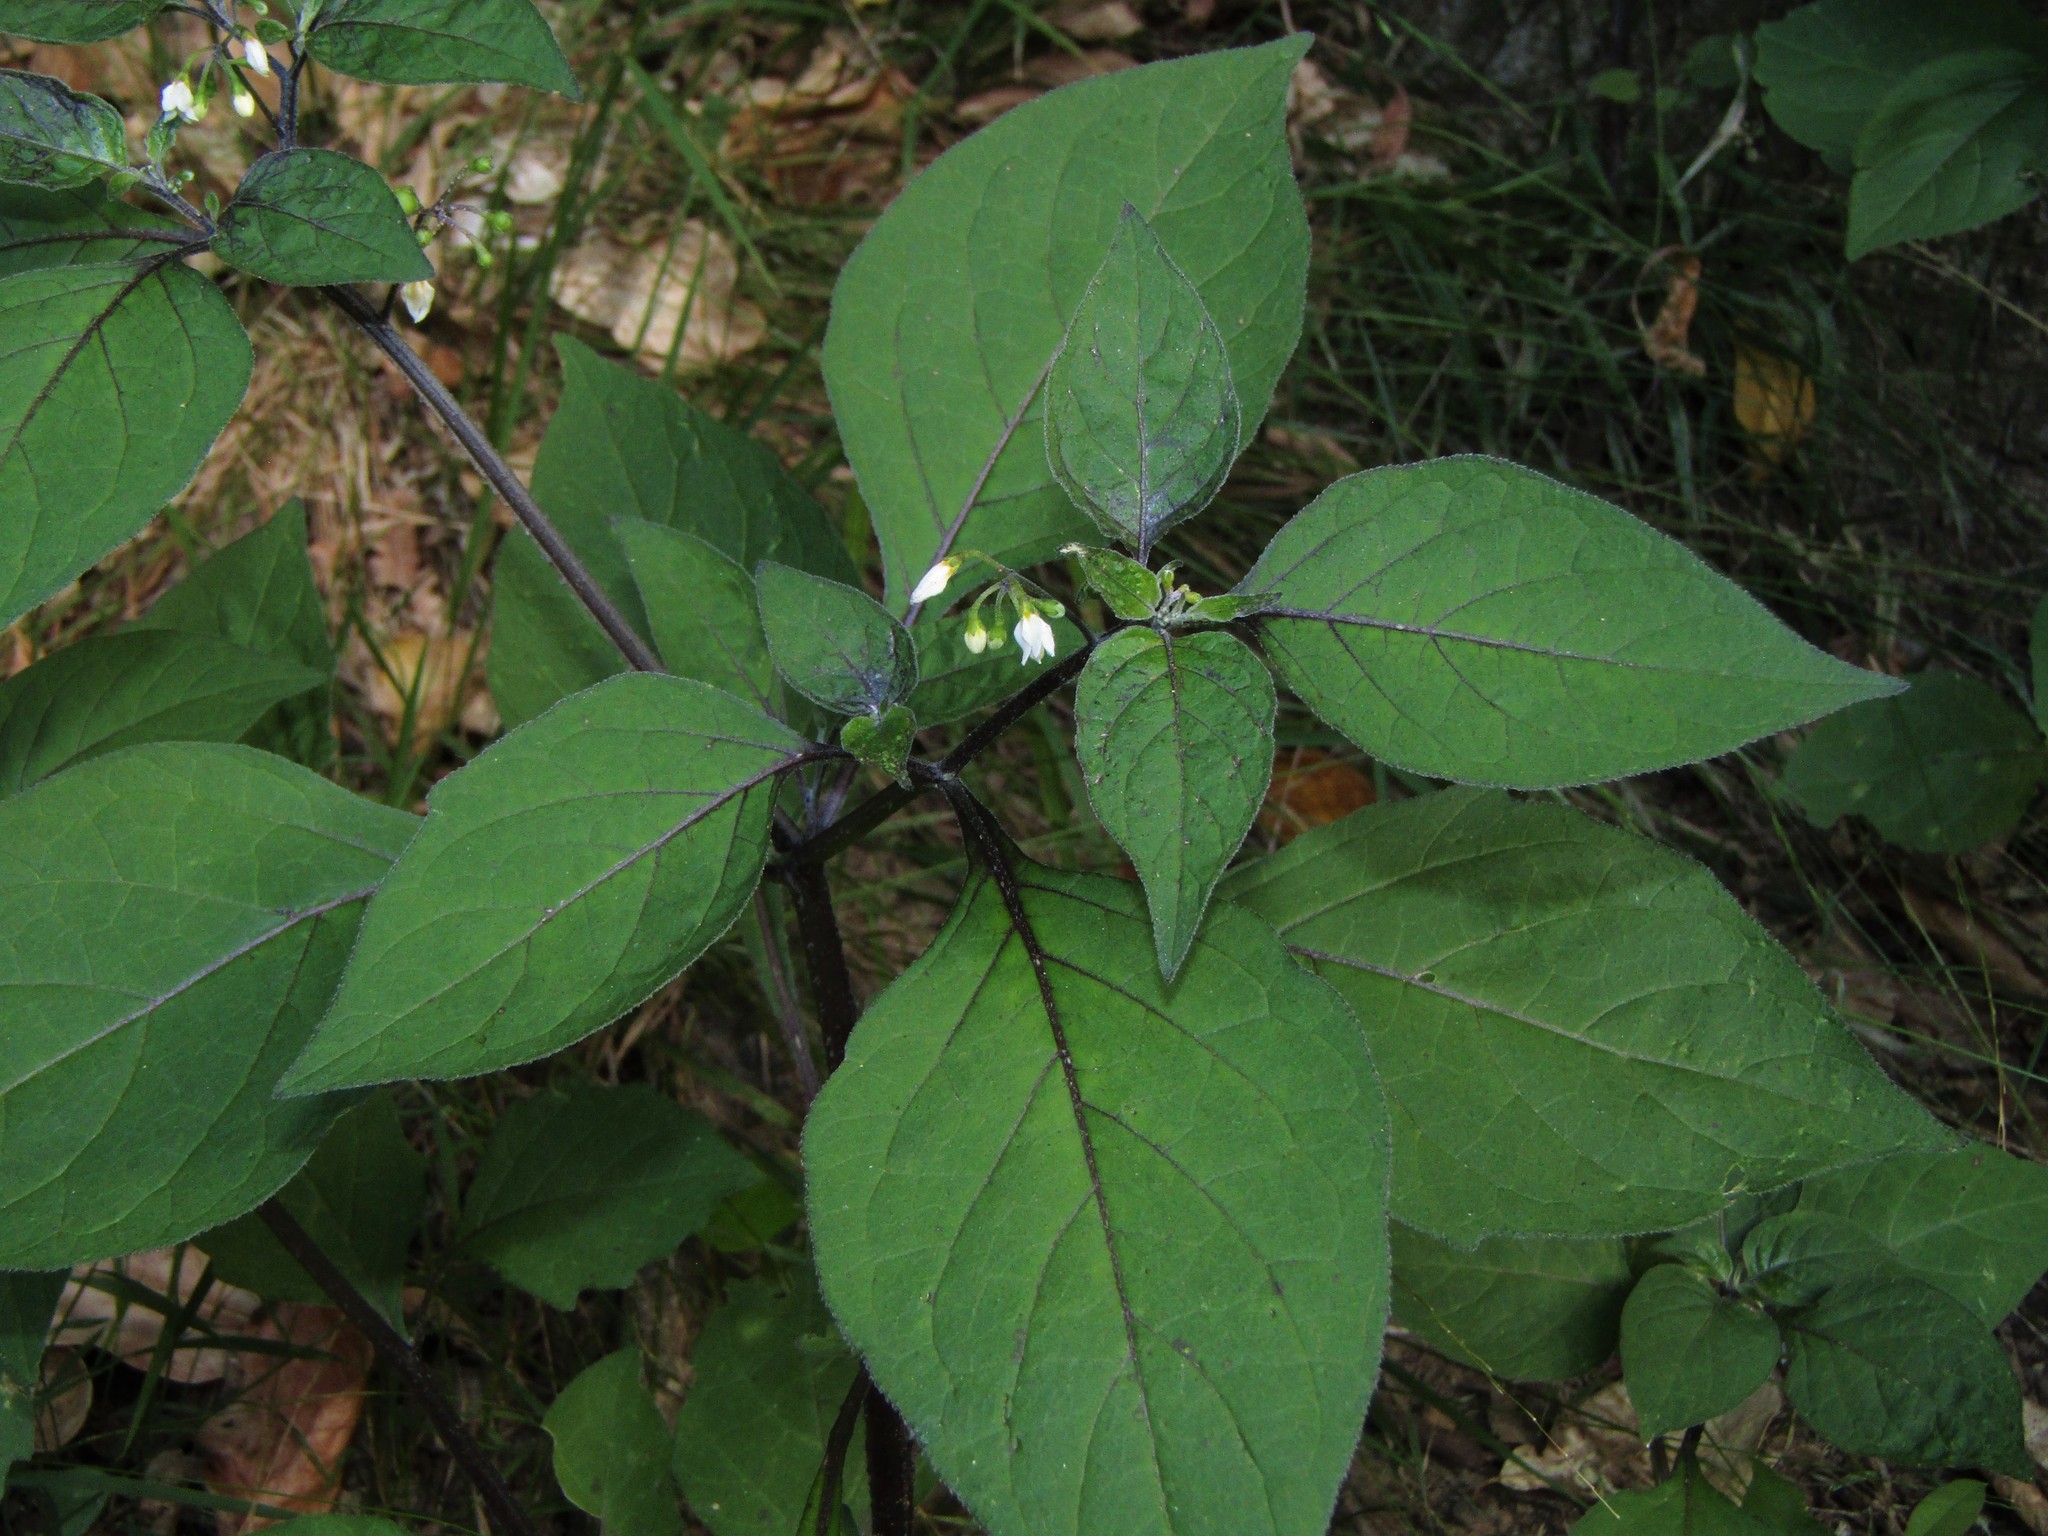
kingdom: Plantae
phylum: Tracheophyta
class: Magnoliopsida
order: Solanales
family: Solanaceae
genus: Solanum
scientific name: Solanum nigrum
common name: Black nightshade
